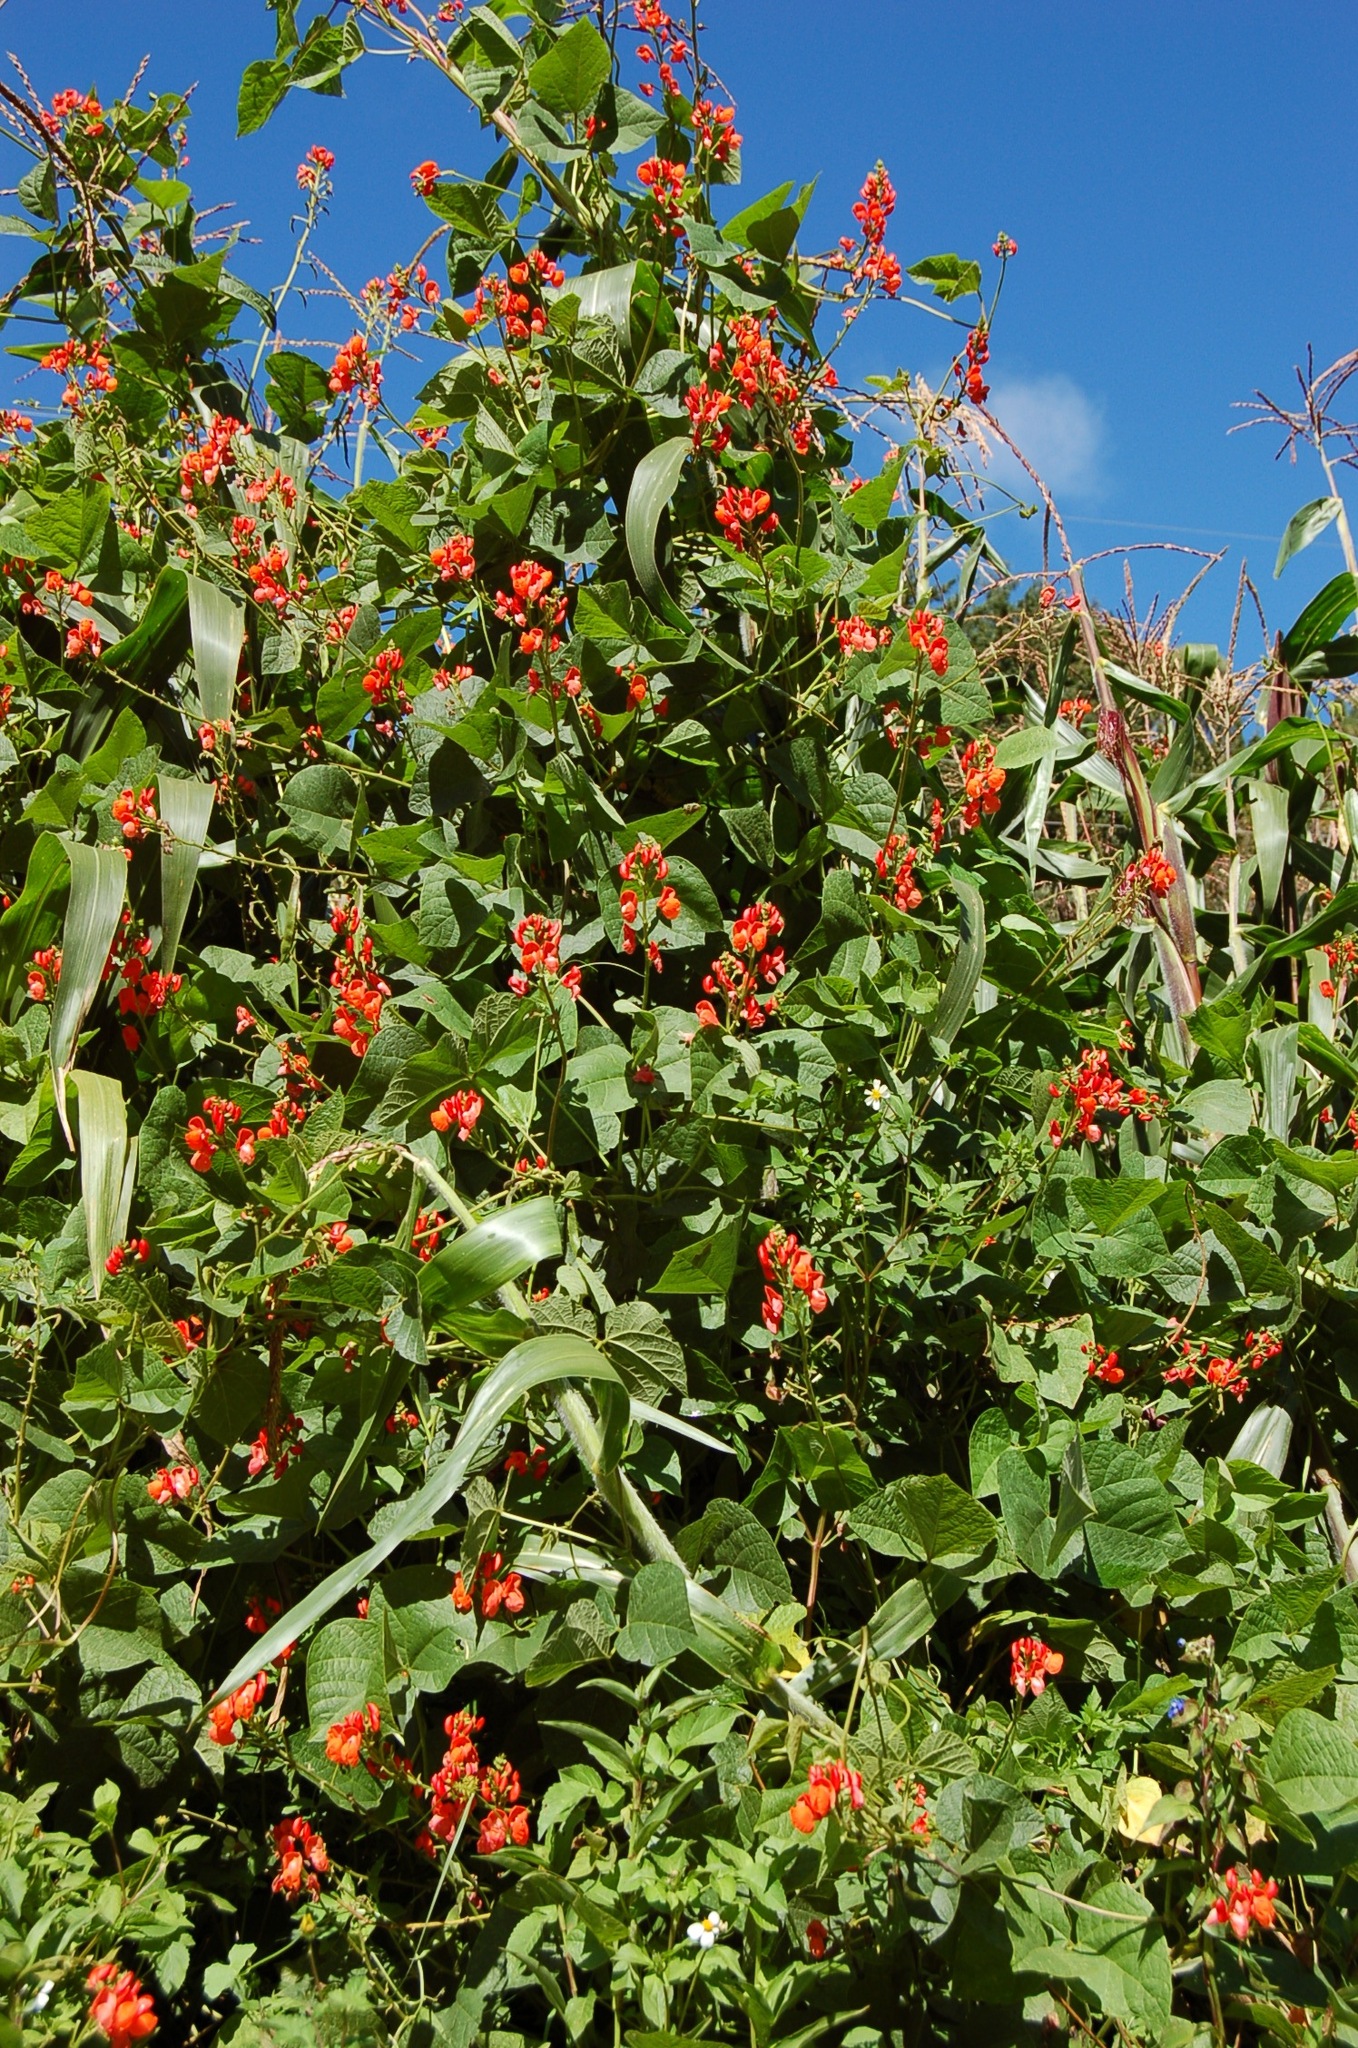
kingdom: Plantae
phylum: Tracheophyta
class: Magnoliopsida
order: Fabales
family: Fabaceae
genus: Phaseolus
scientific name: Phaseolus coccineus
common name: Runner bean
